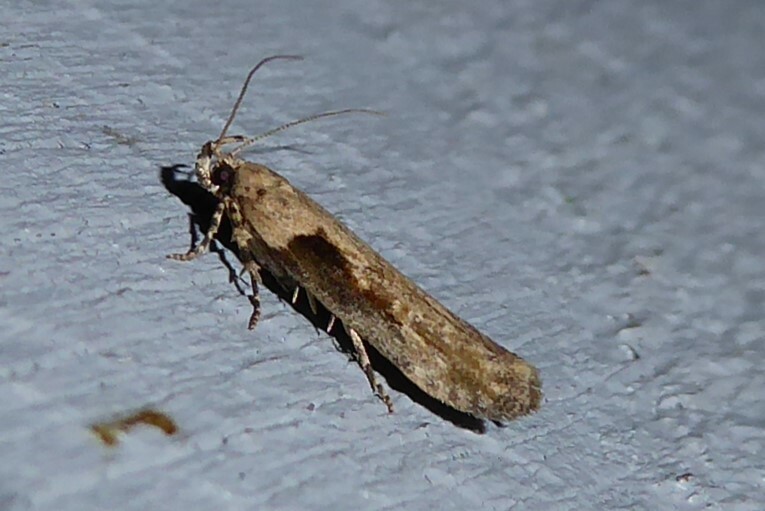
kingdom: Animalia
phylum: Arthropoda
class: Insecta
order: Lepidoptera
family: Gelechiidae
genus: Symmetrischema
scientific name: Symmetrischema tangolias
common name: Moth
